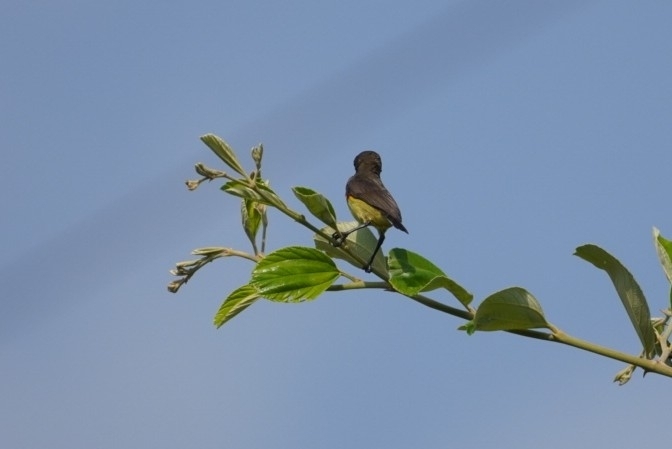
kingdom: Animalia
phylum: Chordata
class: Aves
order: Passeriformes
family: Nectariniidae
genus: Cinnyris
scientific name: Cinnyris
